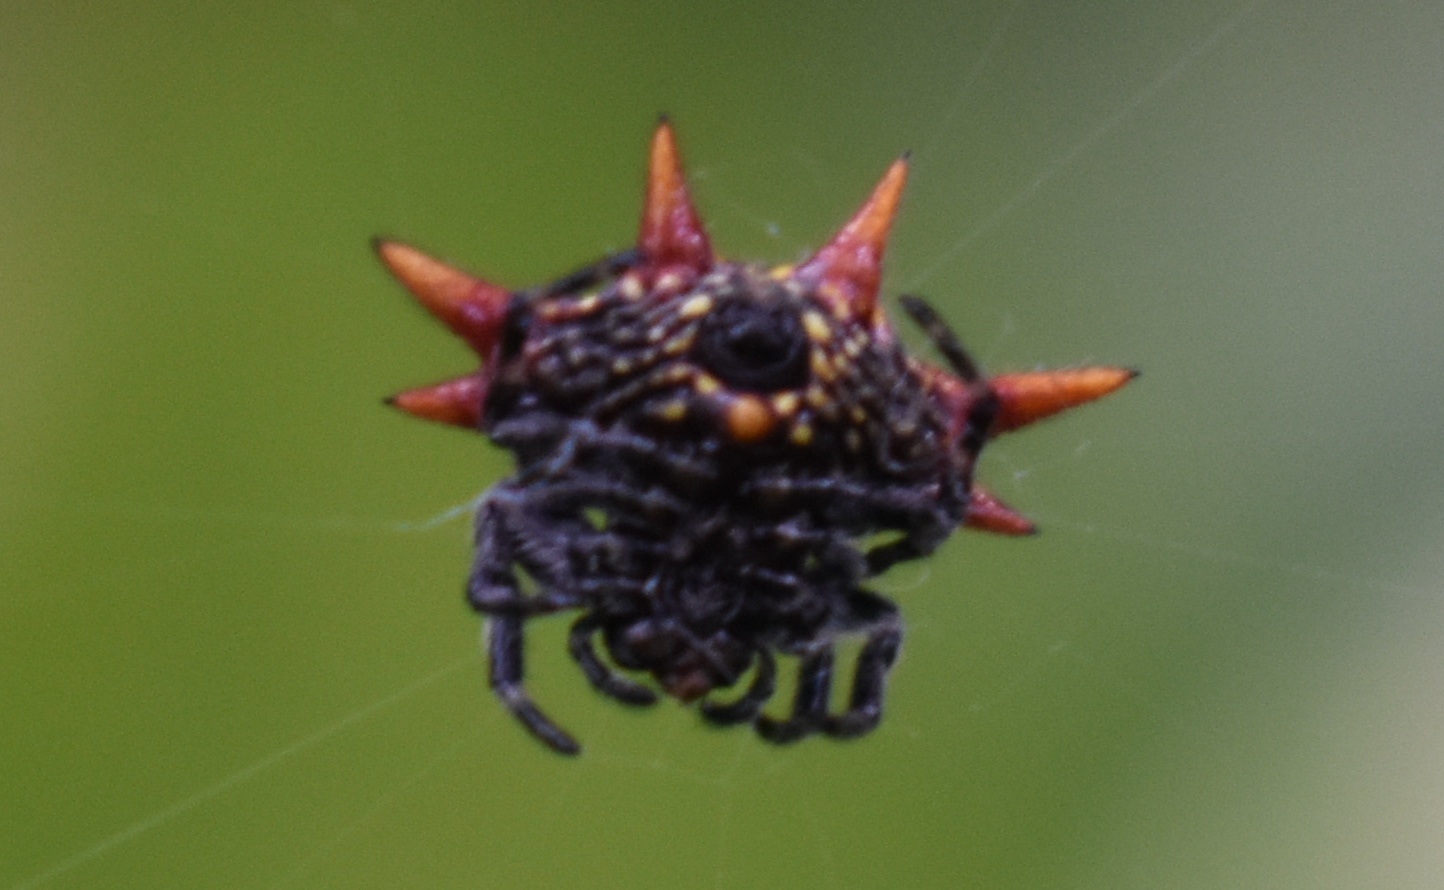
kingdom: Animalia
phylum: Arthropoda
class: Arachnida
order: Araneae
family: Araneidae
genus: Gasteracantha
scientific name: Gasteracantha cancriformis
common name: Orb weavers
